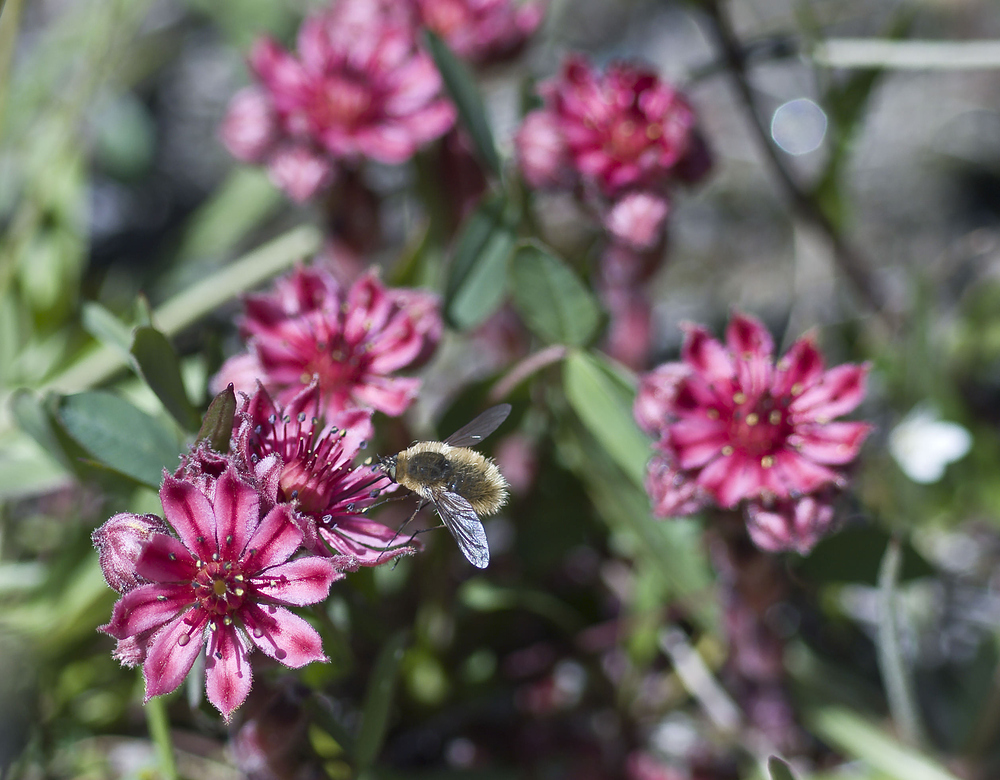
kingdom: Animalia
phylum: Arthropoda
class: Insecta
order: Diptera
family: Bombyliidae
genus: Systoechus
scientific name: Systoechus ctenopterus
